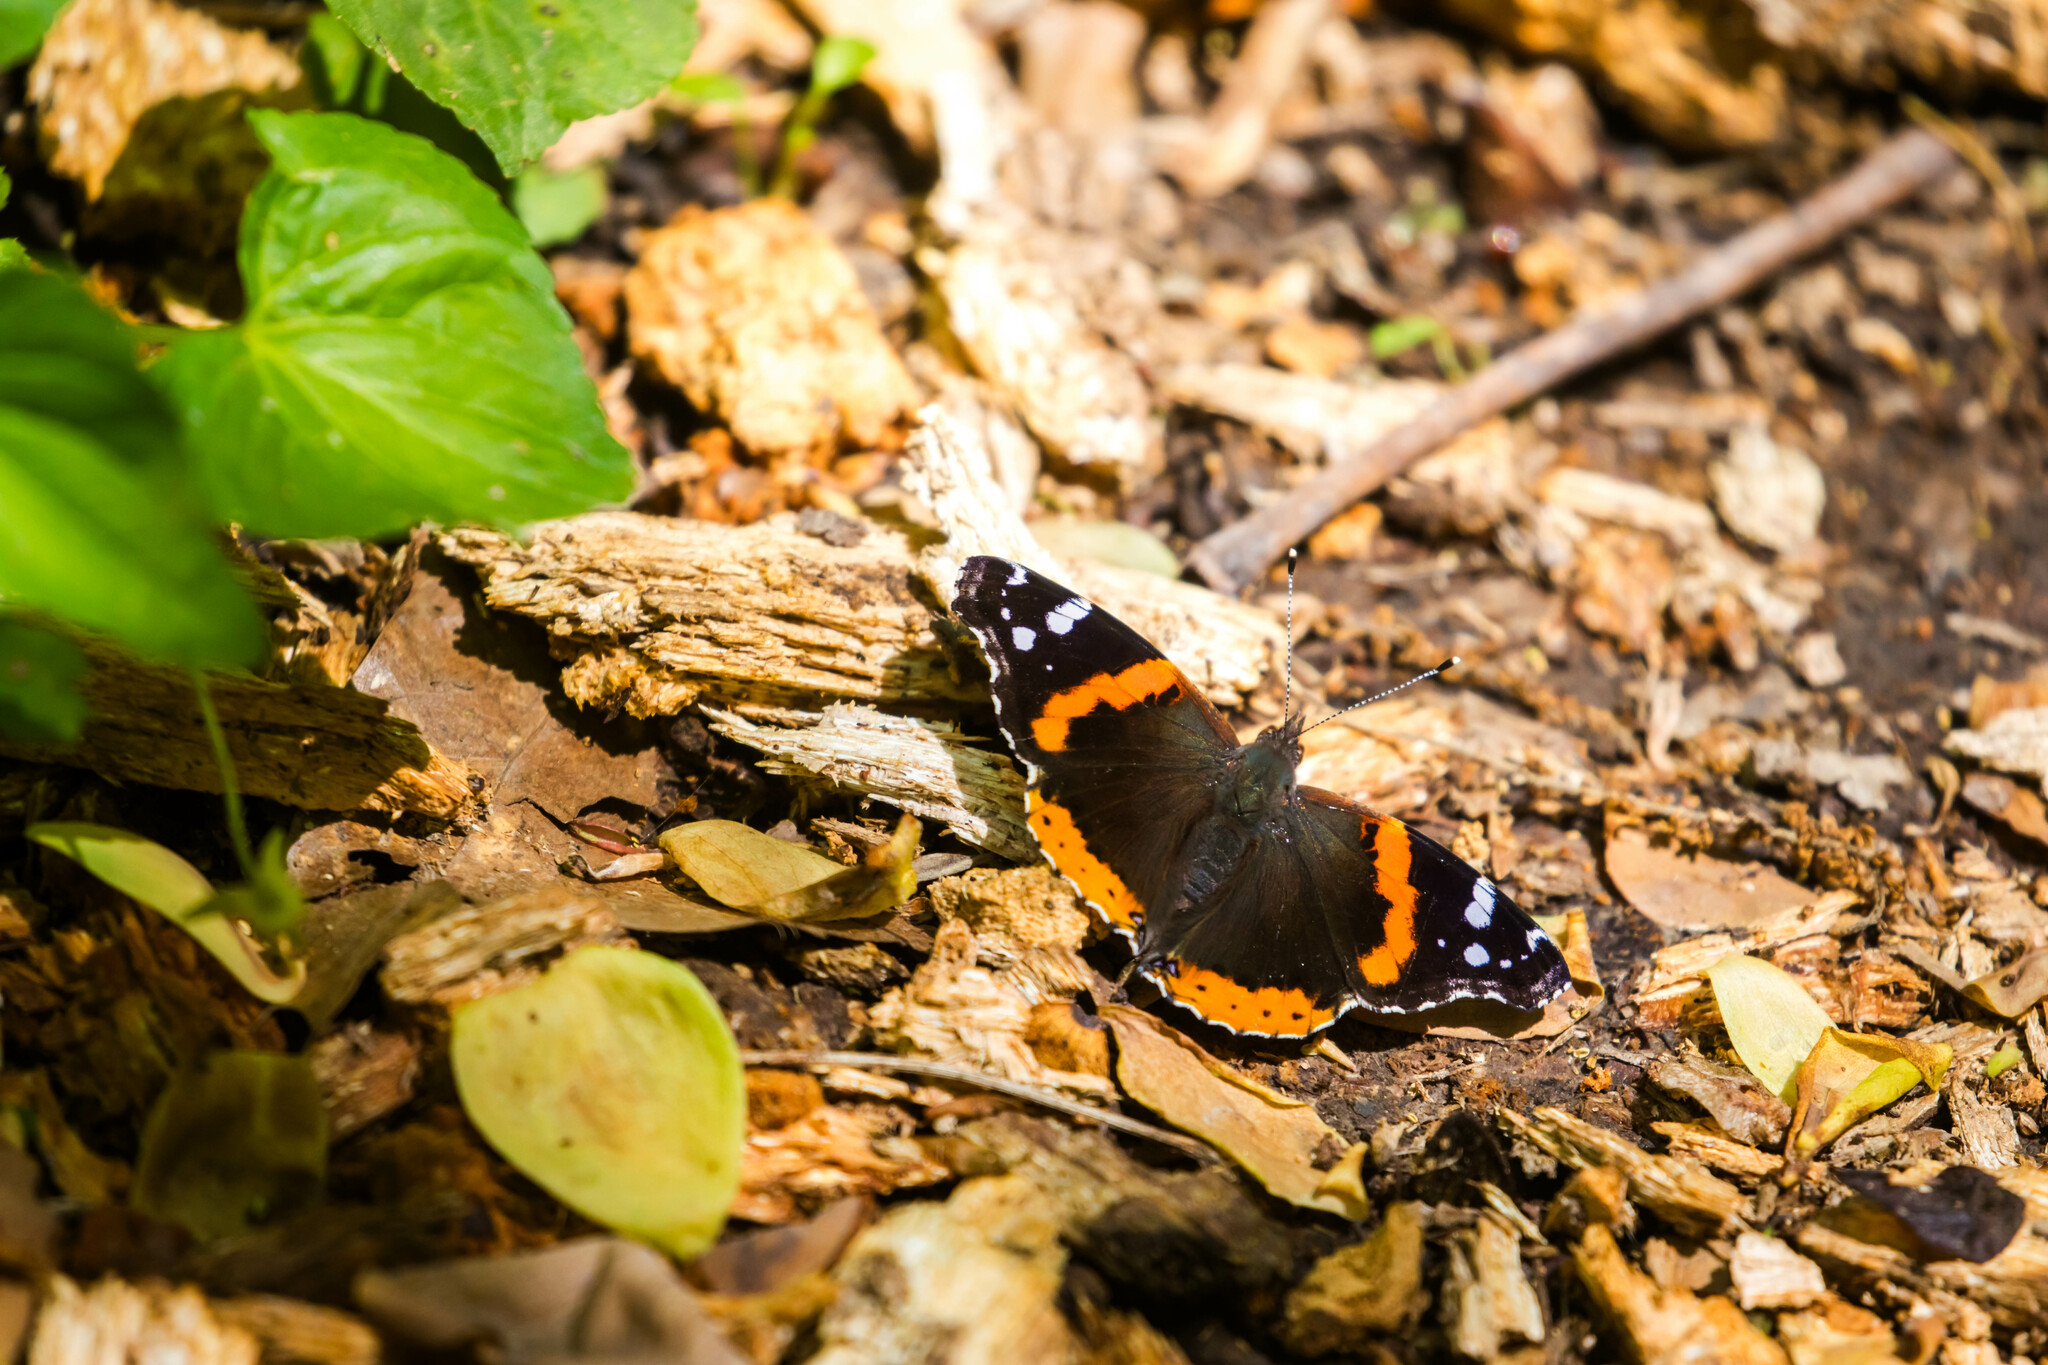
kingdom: Animalia
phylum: Arthropoda
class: Insecta
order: Lepidoptera
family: Nymphalidae
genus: Vanessa
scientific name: Vanessa atalanta
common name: Red admiral
